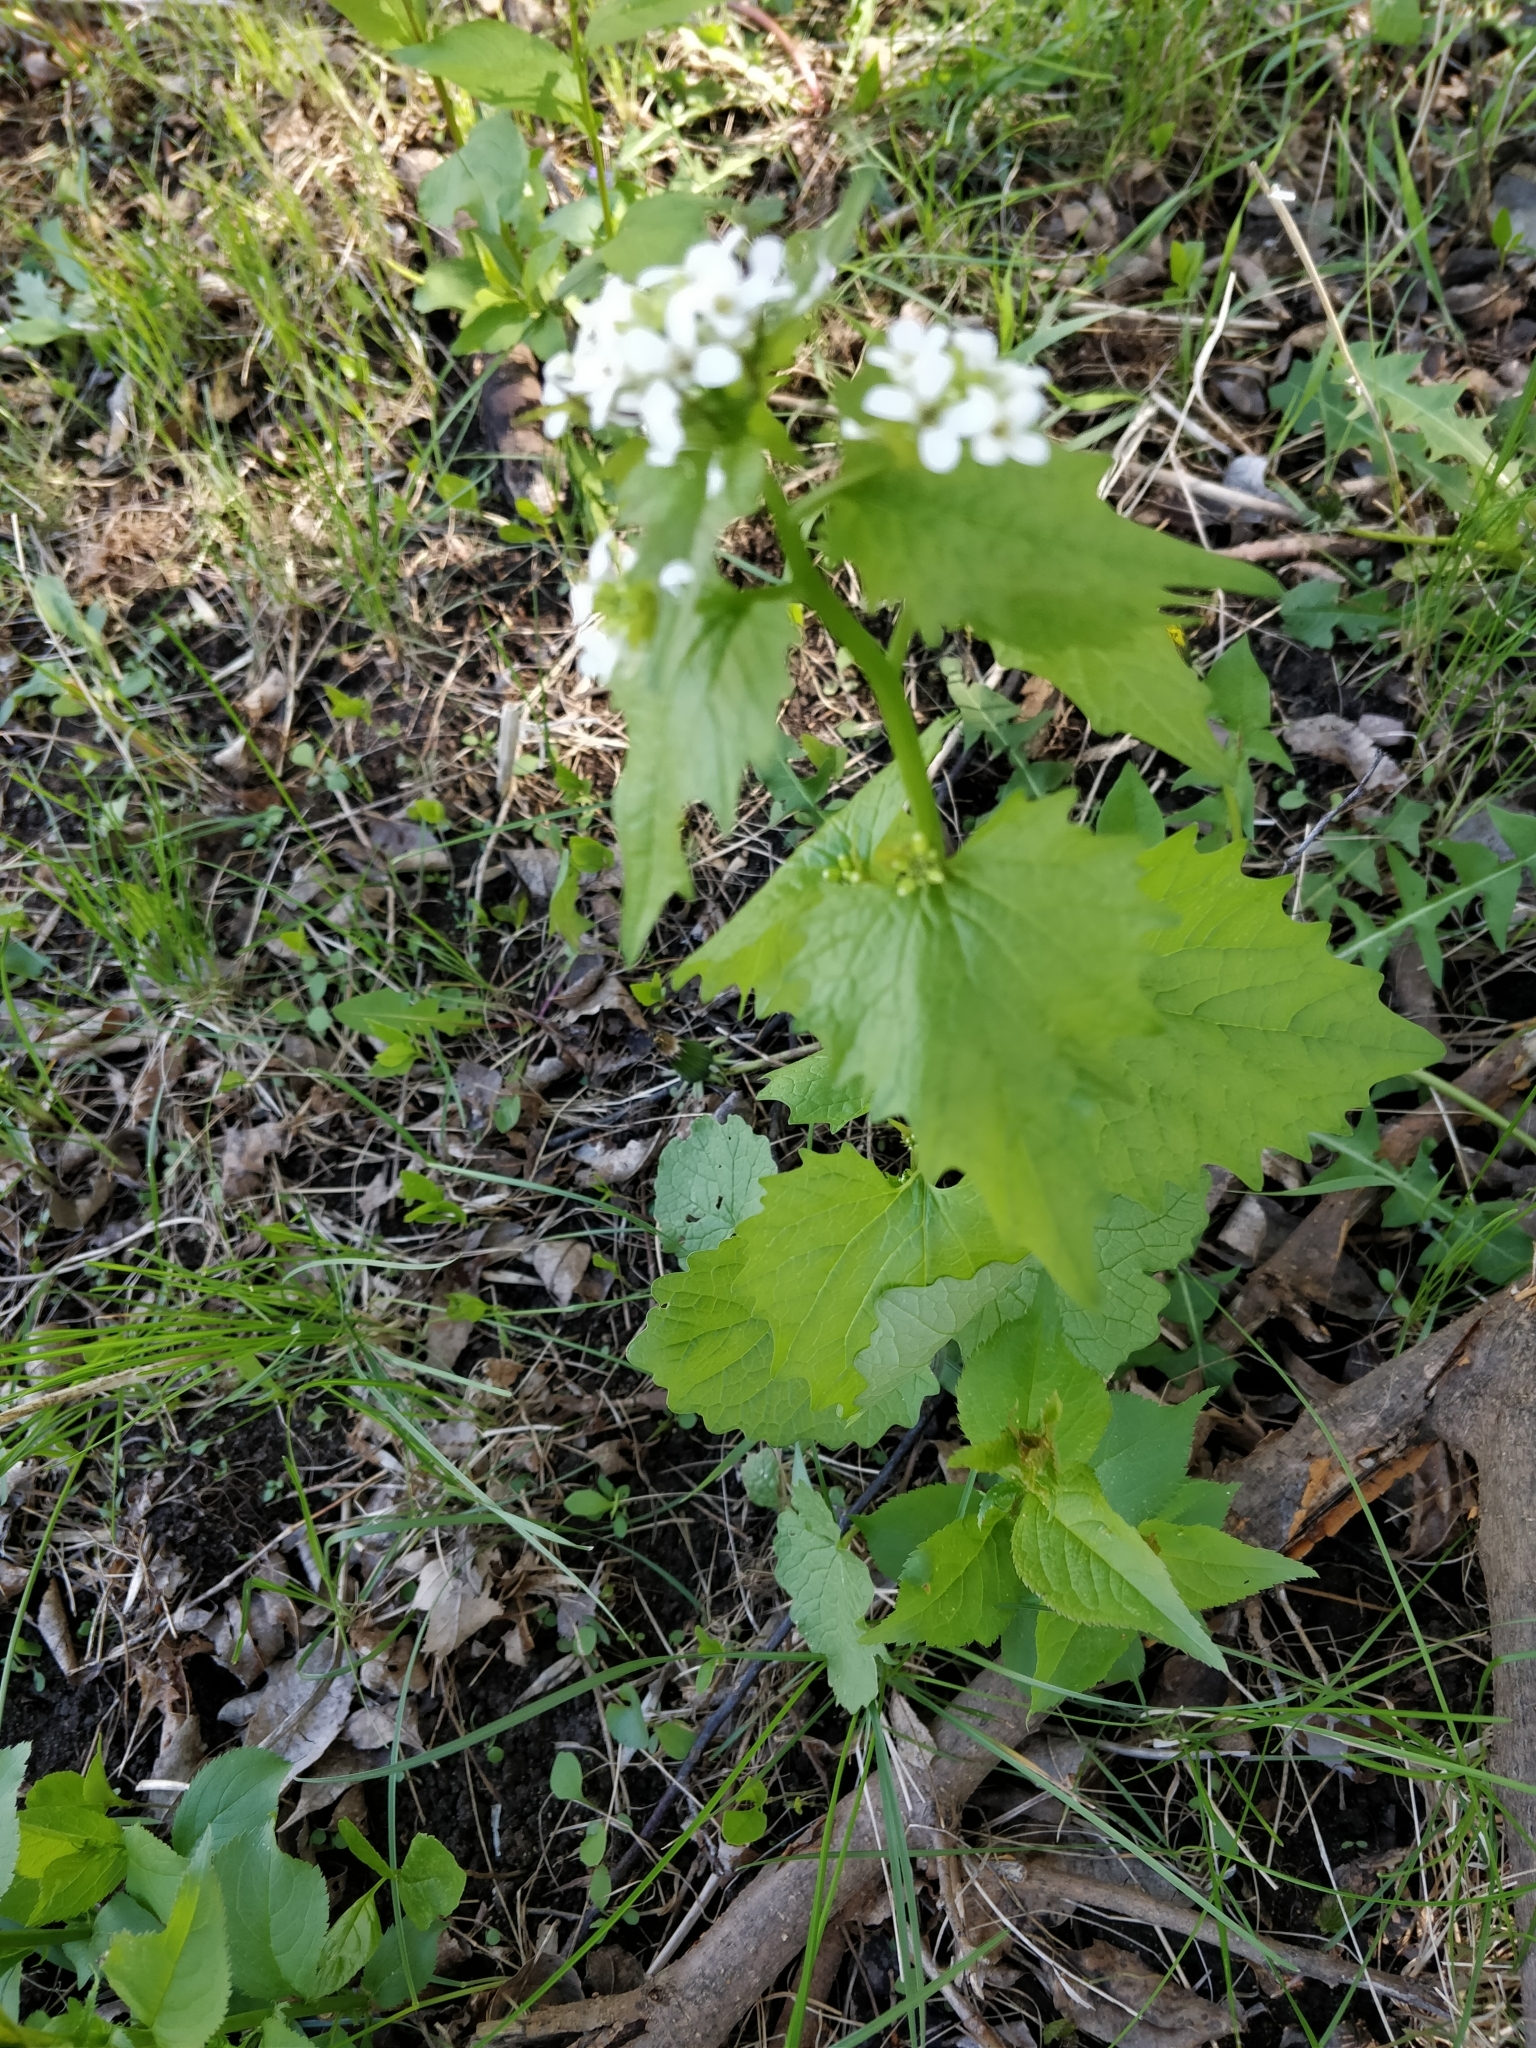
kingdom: Plantae
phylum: Tracheophyta
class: Magnoliopsida
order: Brassicales
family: Brassicaceae
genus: Alliaria
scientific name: Alliaria petiolata
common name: Garlic mustard
